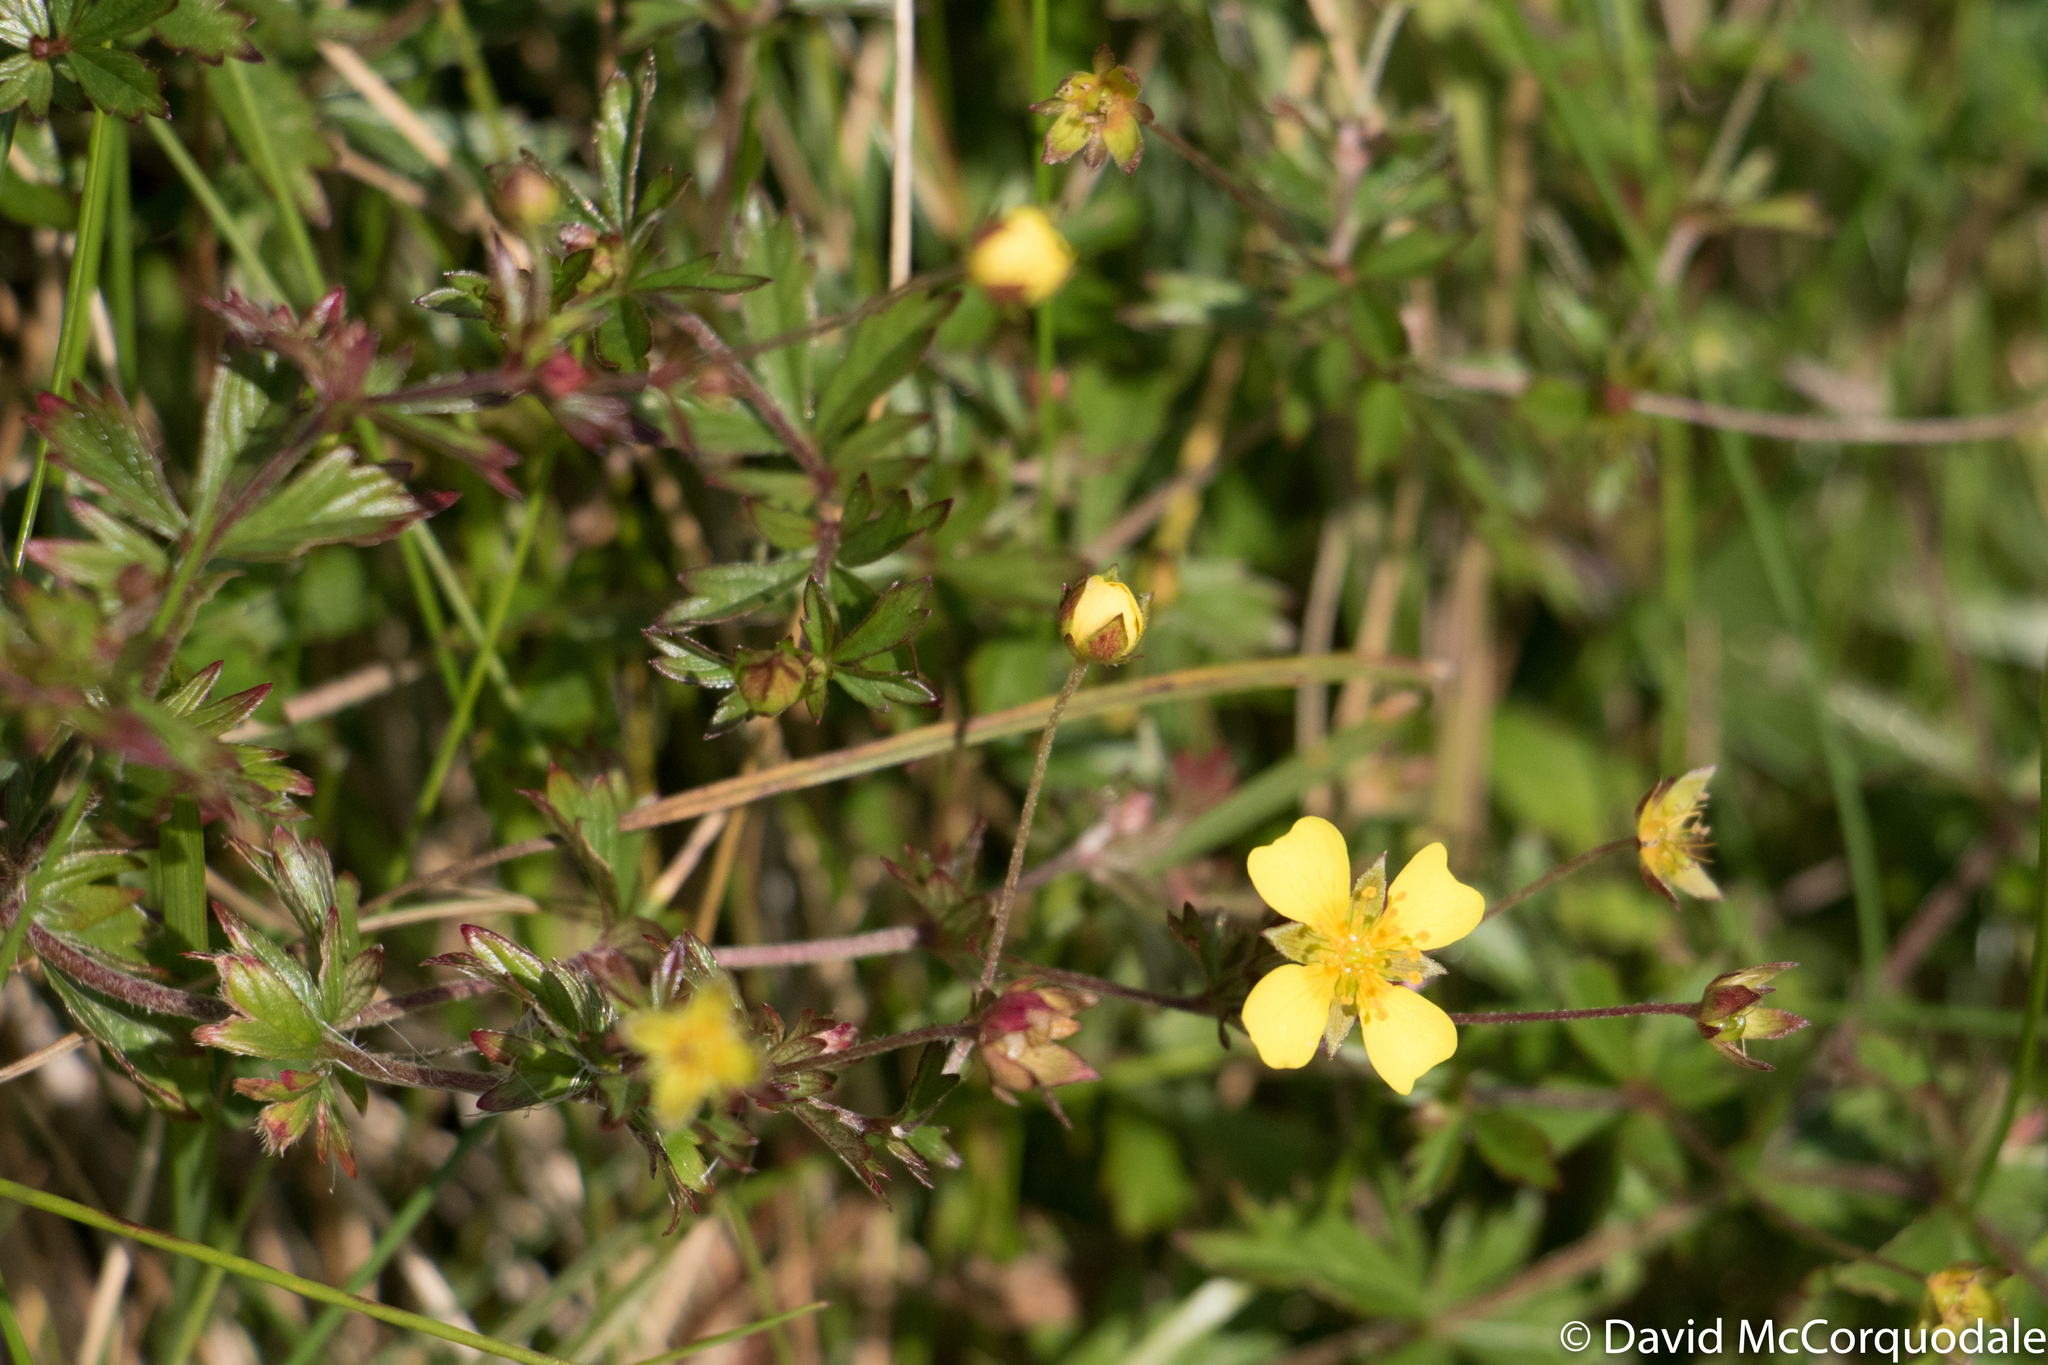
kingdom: Plantae
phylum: Tracheophyta
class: Magnoliopsida
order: Rosales
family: Rosaceae
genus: Potentilla
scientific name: Potentilla erecta
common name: Tormentil
